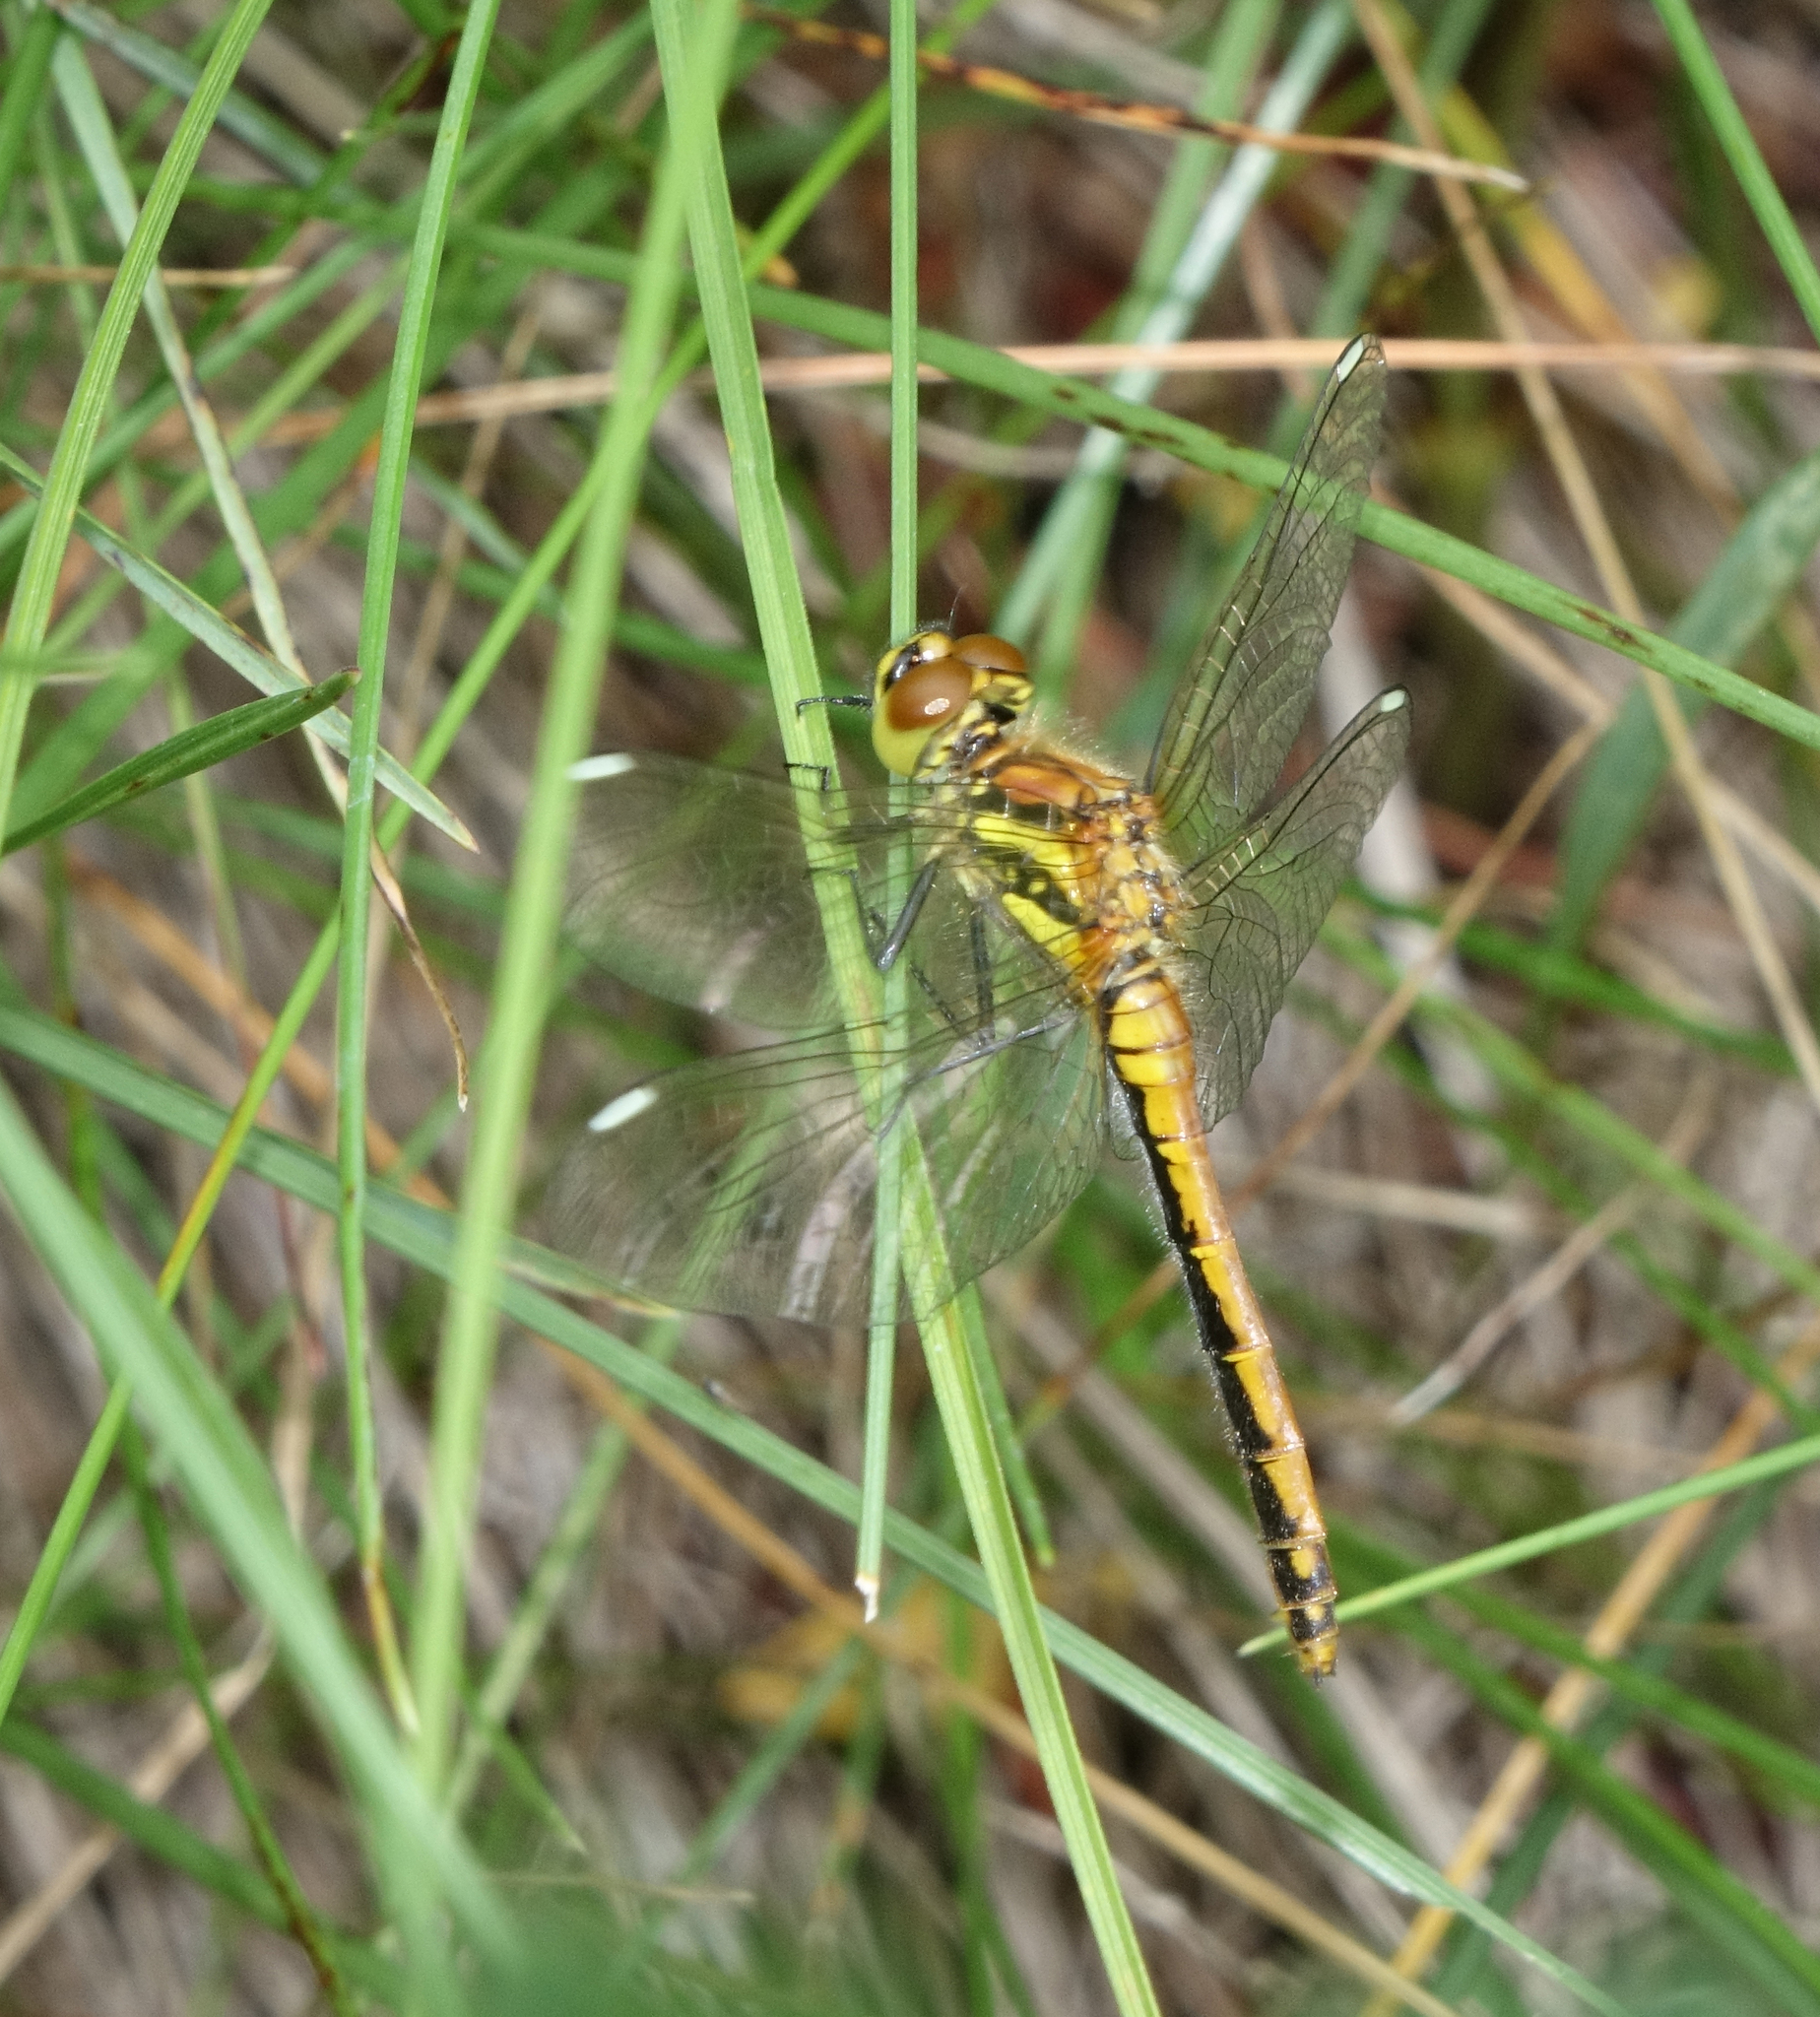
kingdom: Animalia
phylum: Arthropoda
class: Insecta
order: Odonata
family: Libellulidae
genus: Sympetrum
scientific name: Sympetrum danae
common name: Black darter
